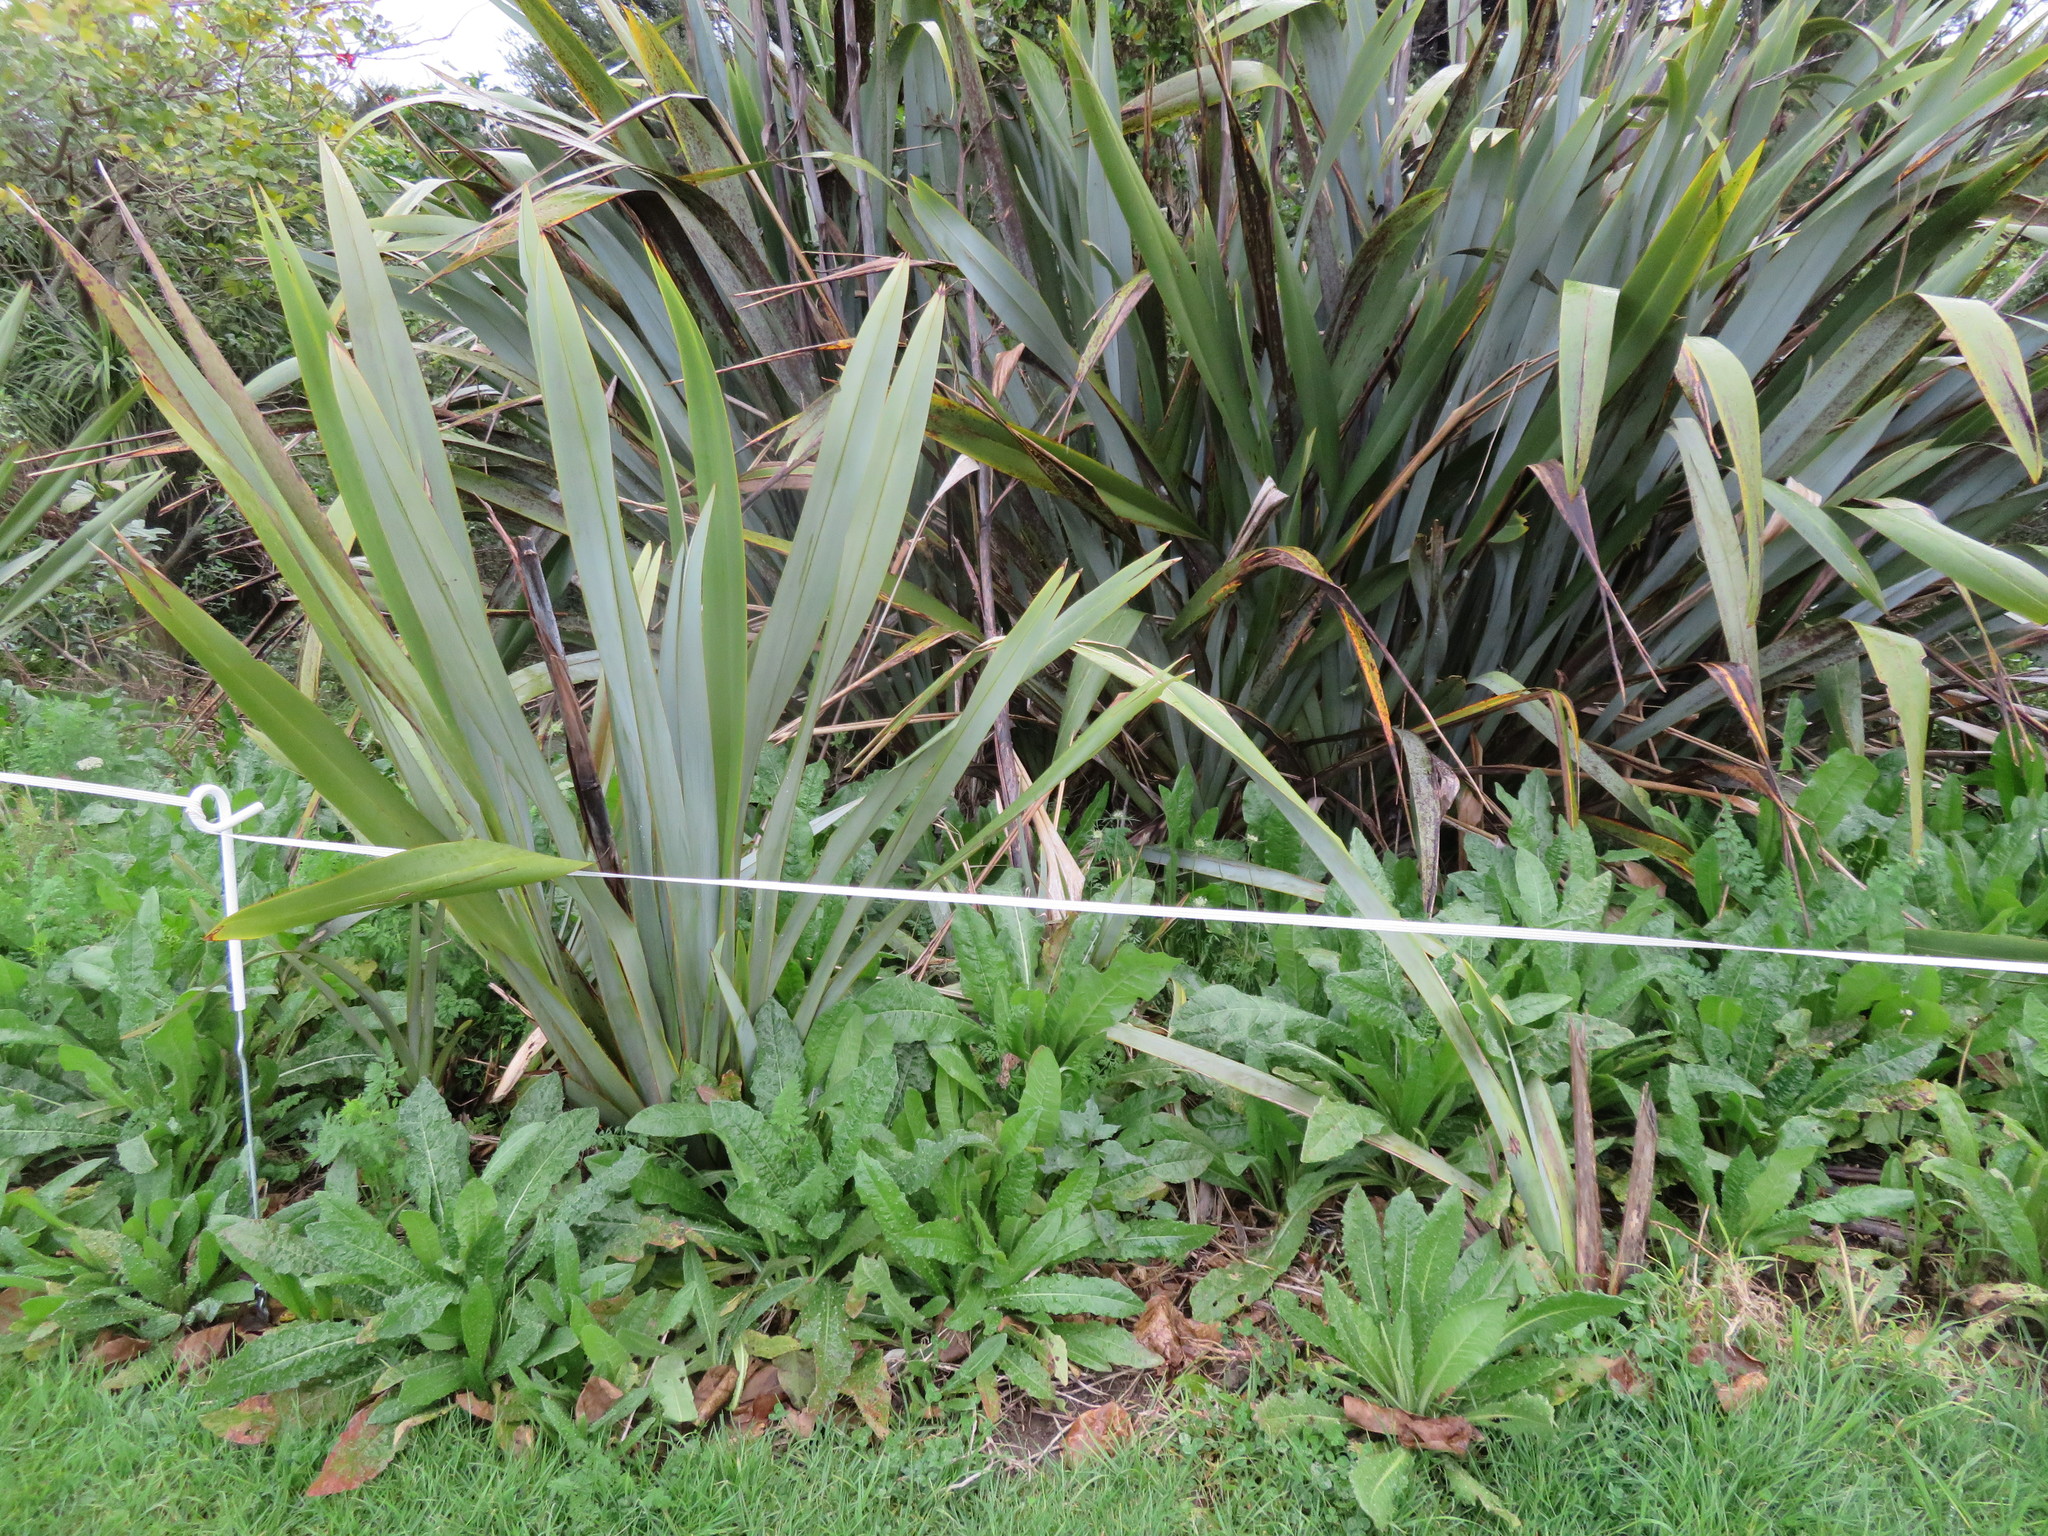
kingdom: Plantae
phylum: Tracheophyta
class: Magnoliopsida
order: Asterales
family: Asteraceae
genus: Helminthotheca
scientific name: Helminthotheca echioides
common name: Ox-tongue
